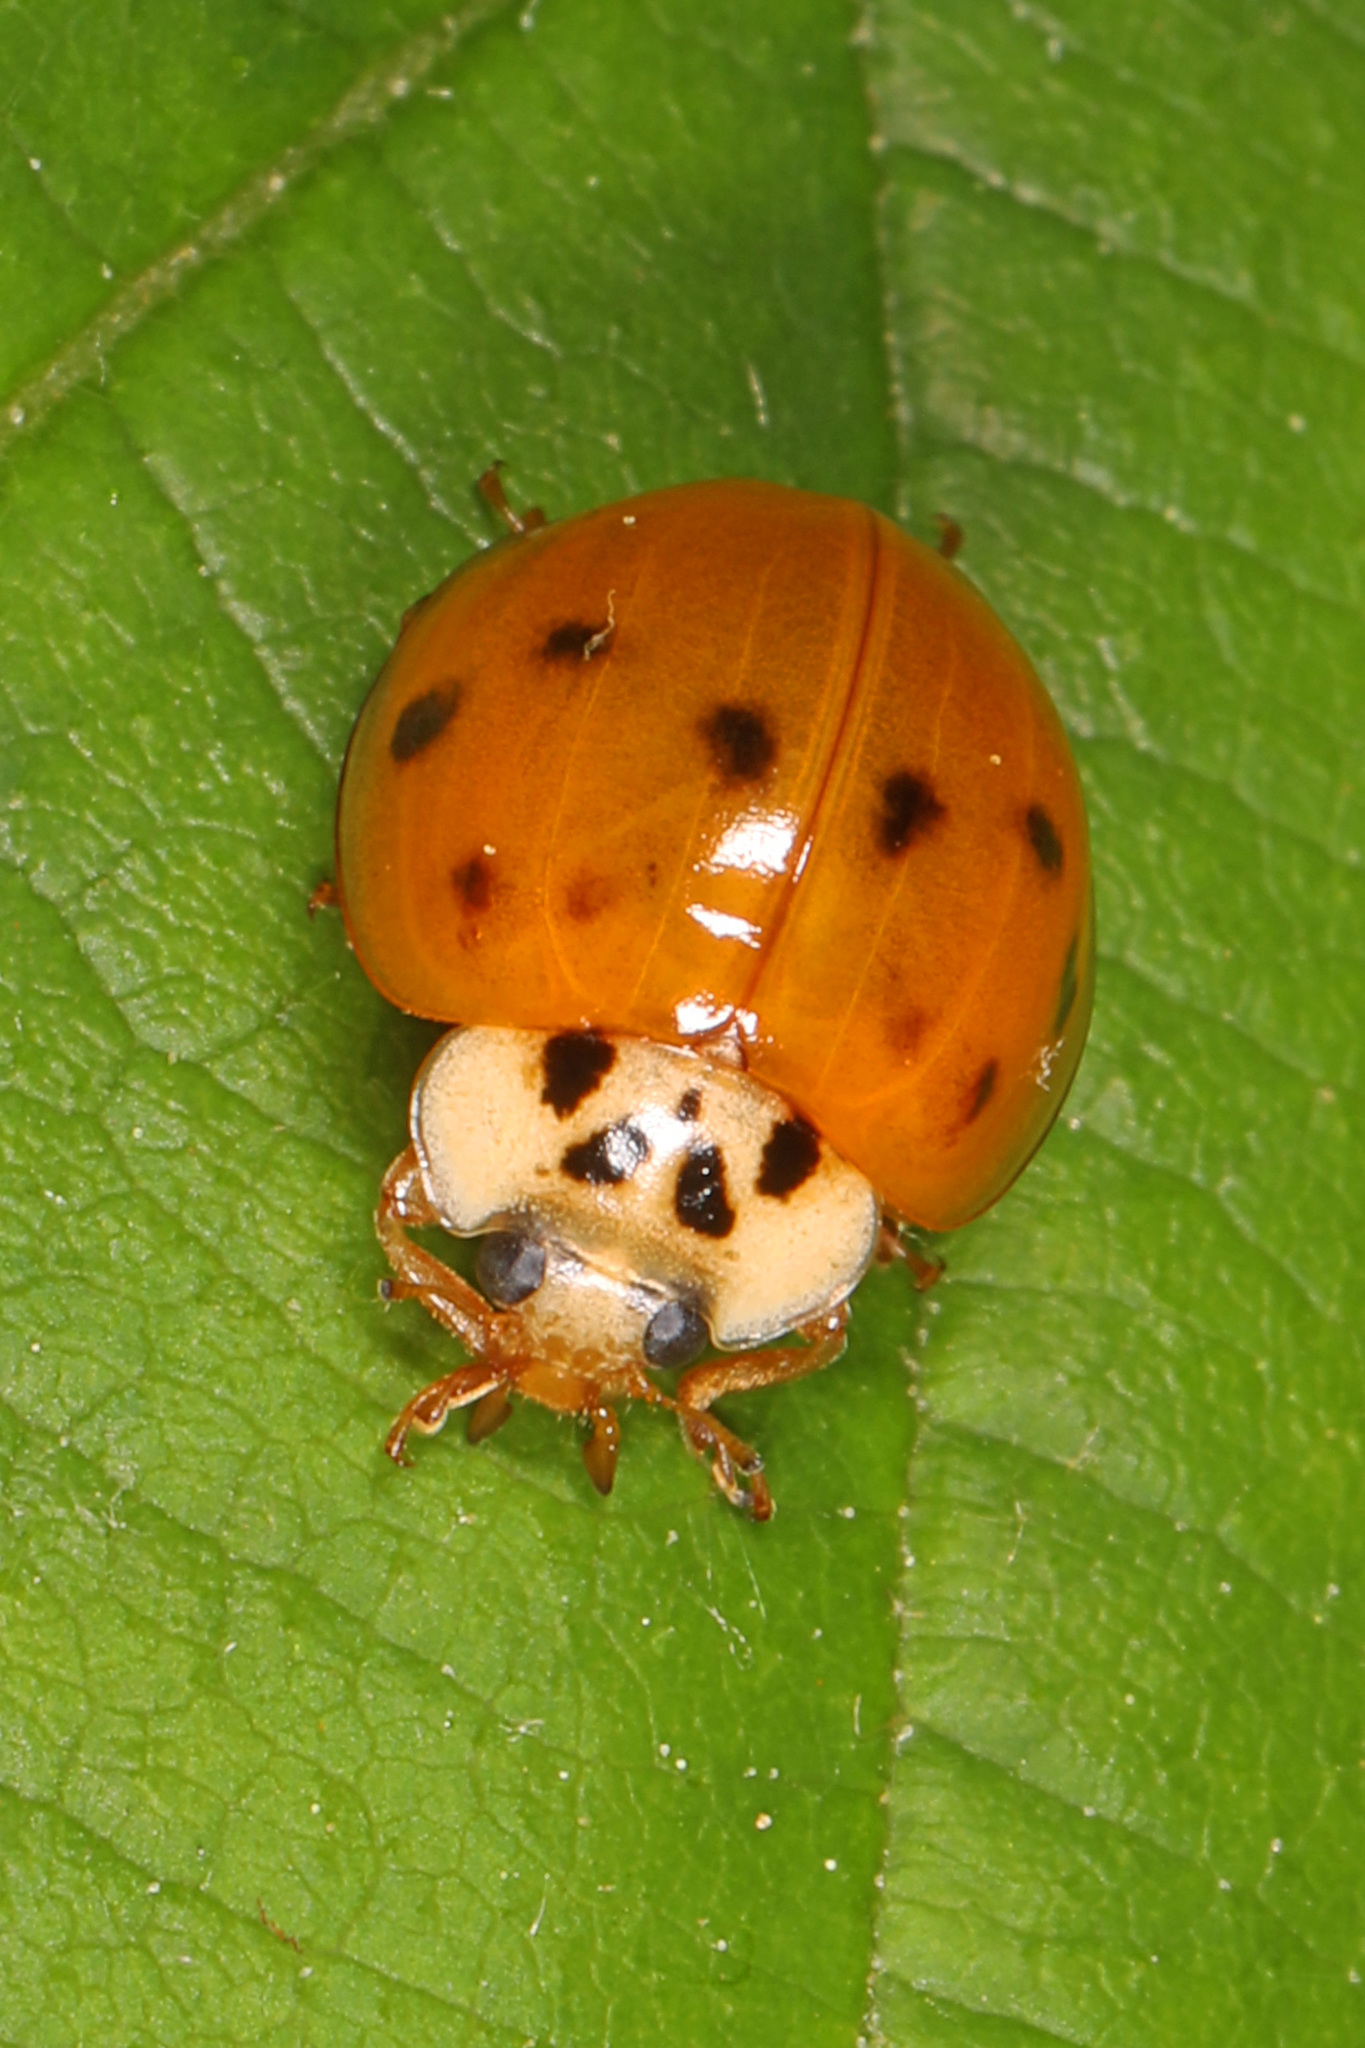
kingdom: Animalia
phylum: Arthropoda
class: Insecta
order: Coleoptera
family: Coccinellidae
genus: Harmonia
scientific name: Harmonia axyridis
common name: Harlequin ladybird
